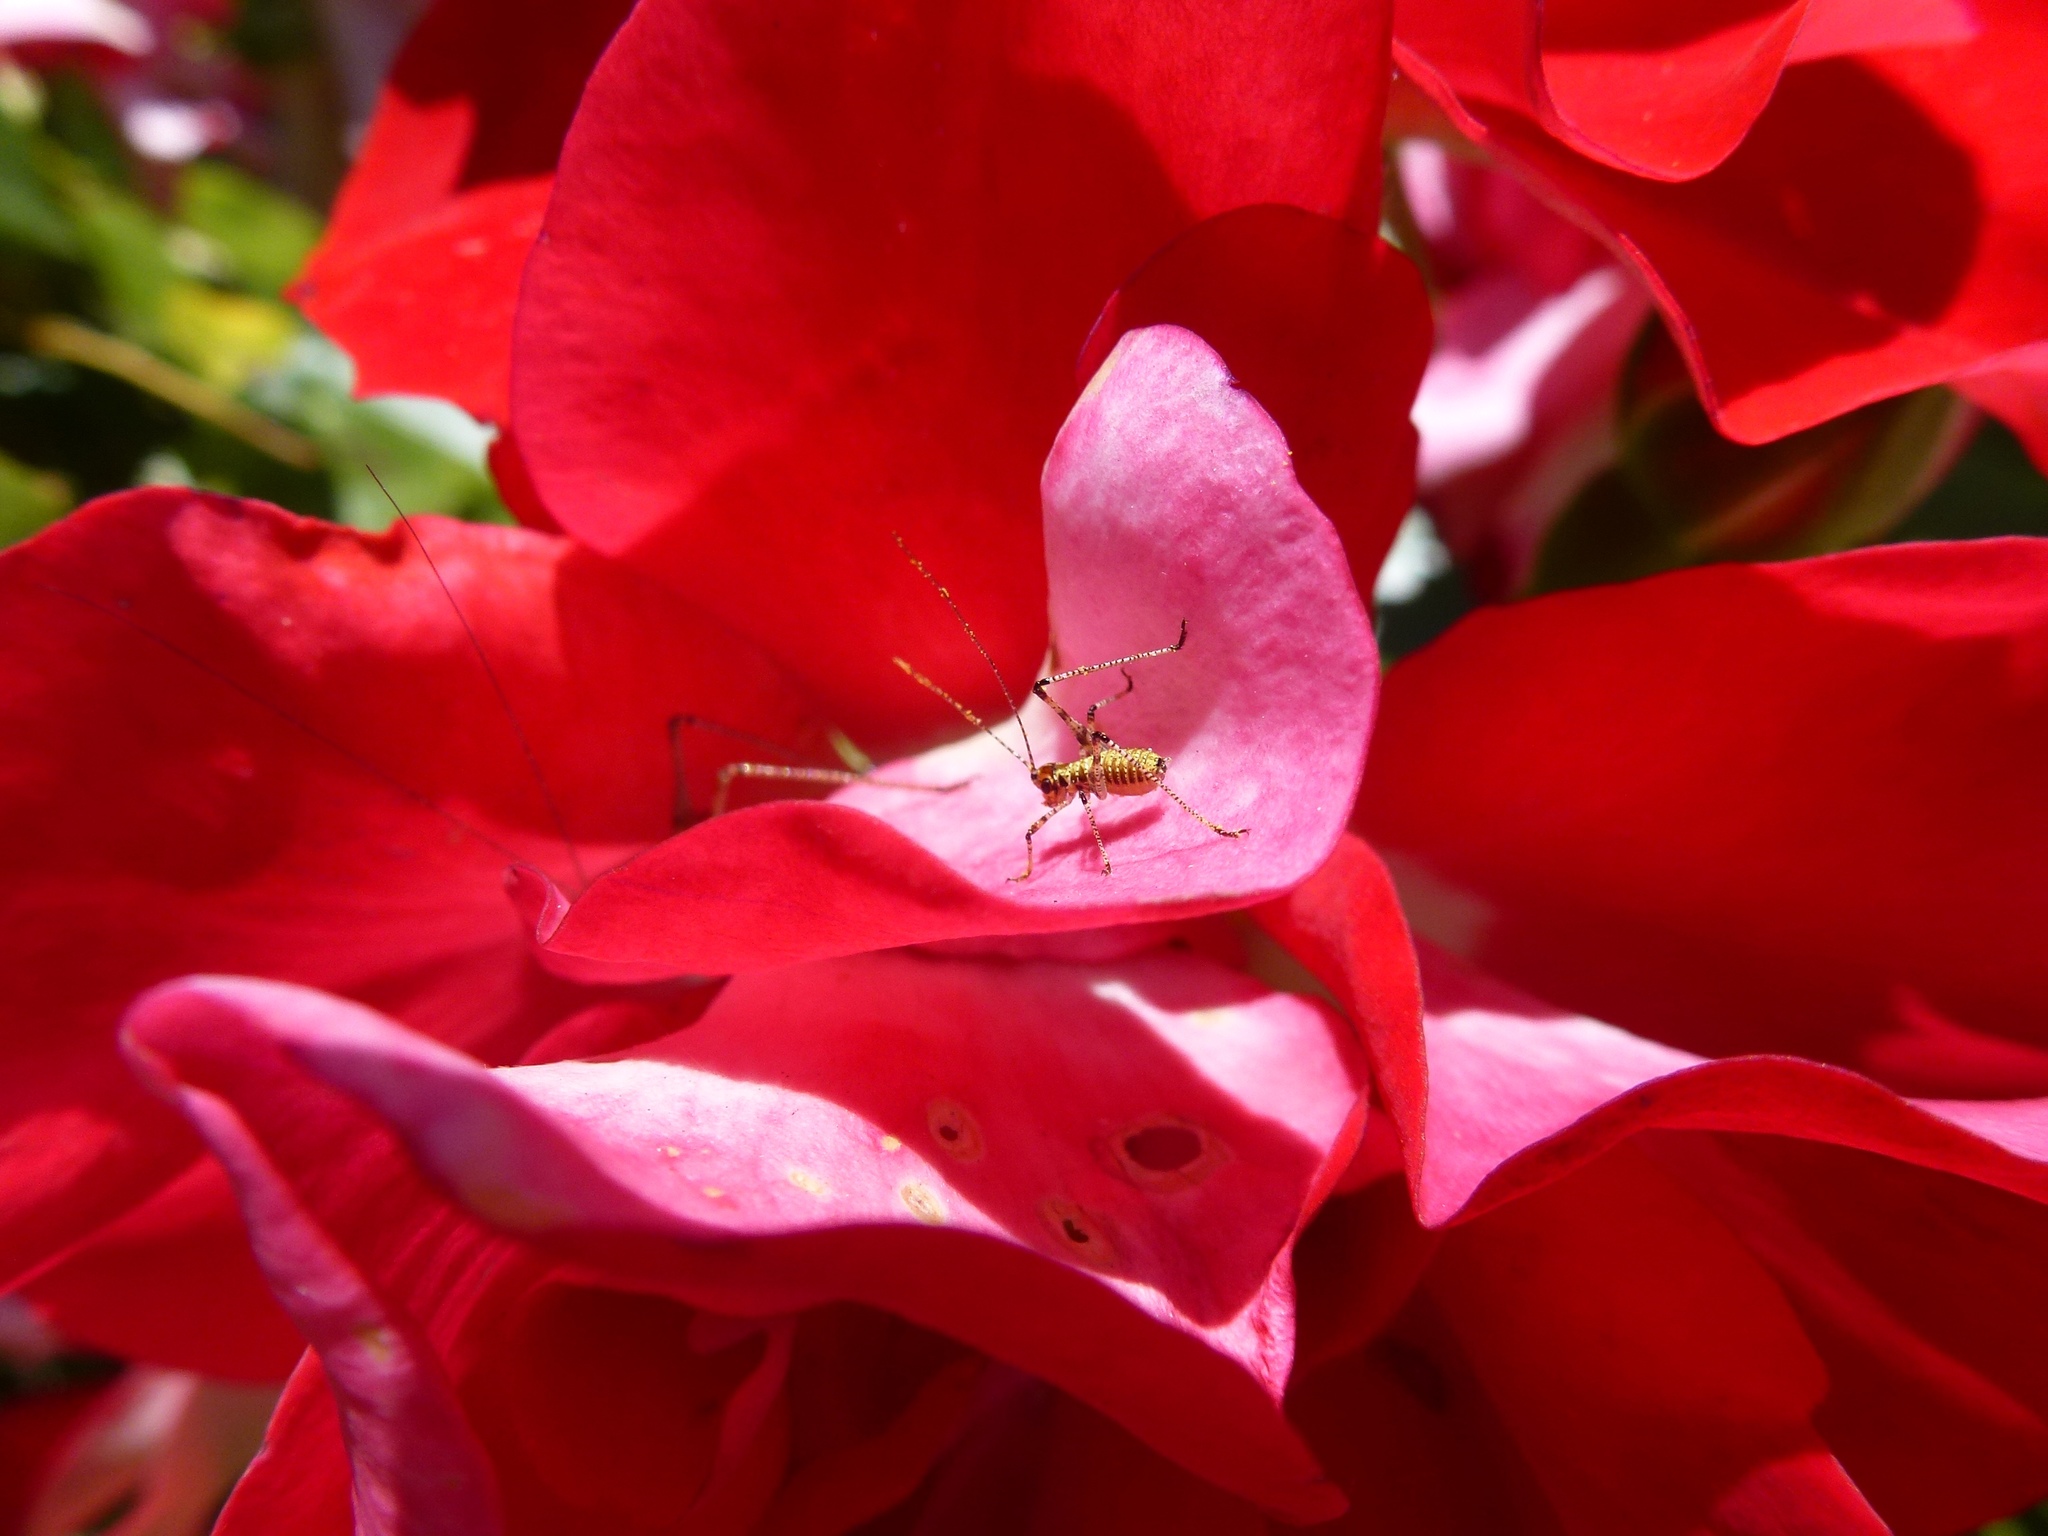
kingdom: Animalia
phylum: Arthropoda
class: Insecta
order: Orthoptera
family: Tettigoniidae
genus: Phaneroptera
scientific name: Phaneroptera nana
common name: Southern sickle bush-cricket
